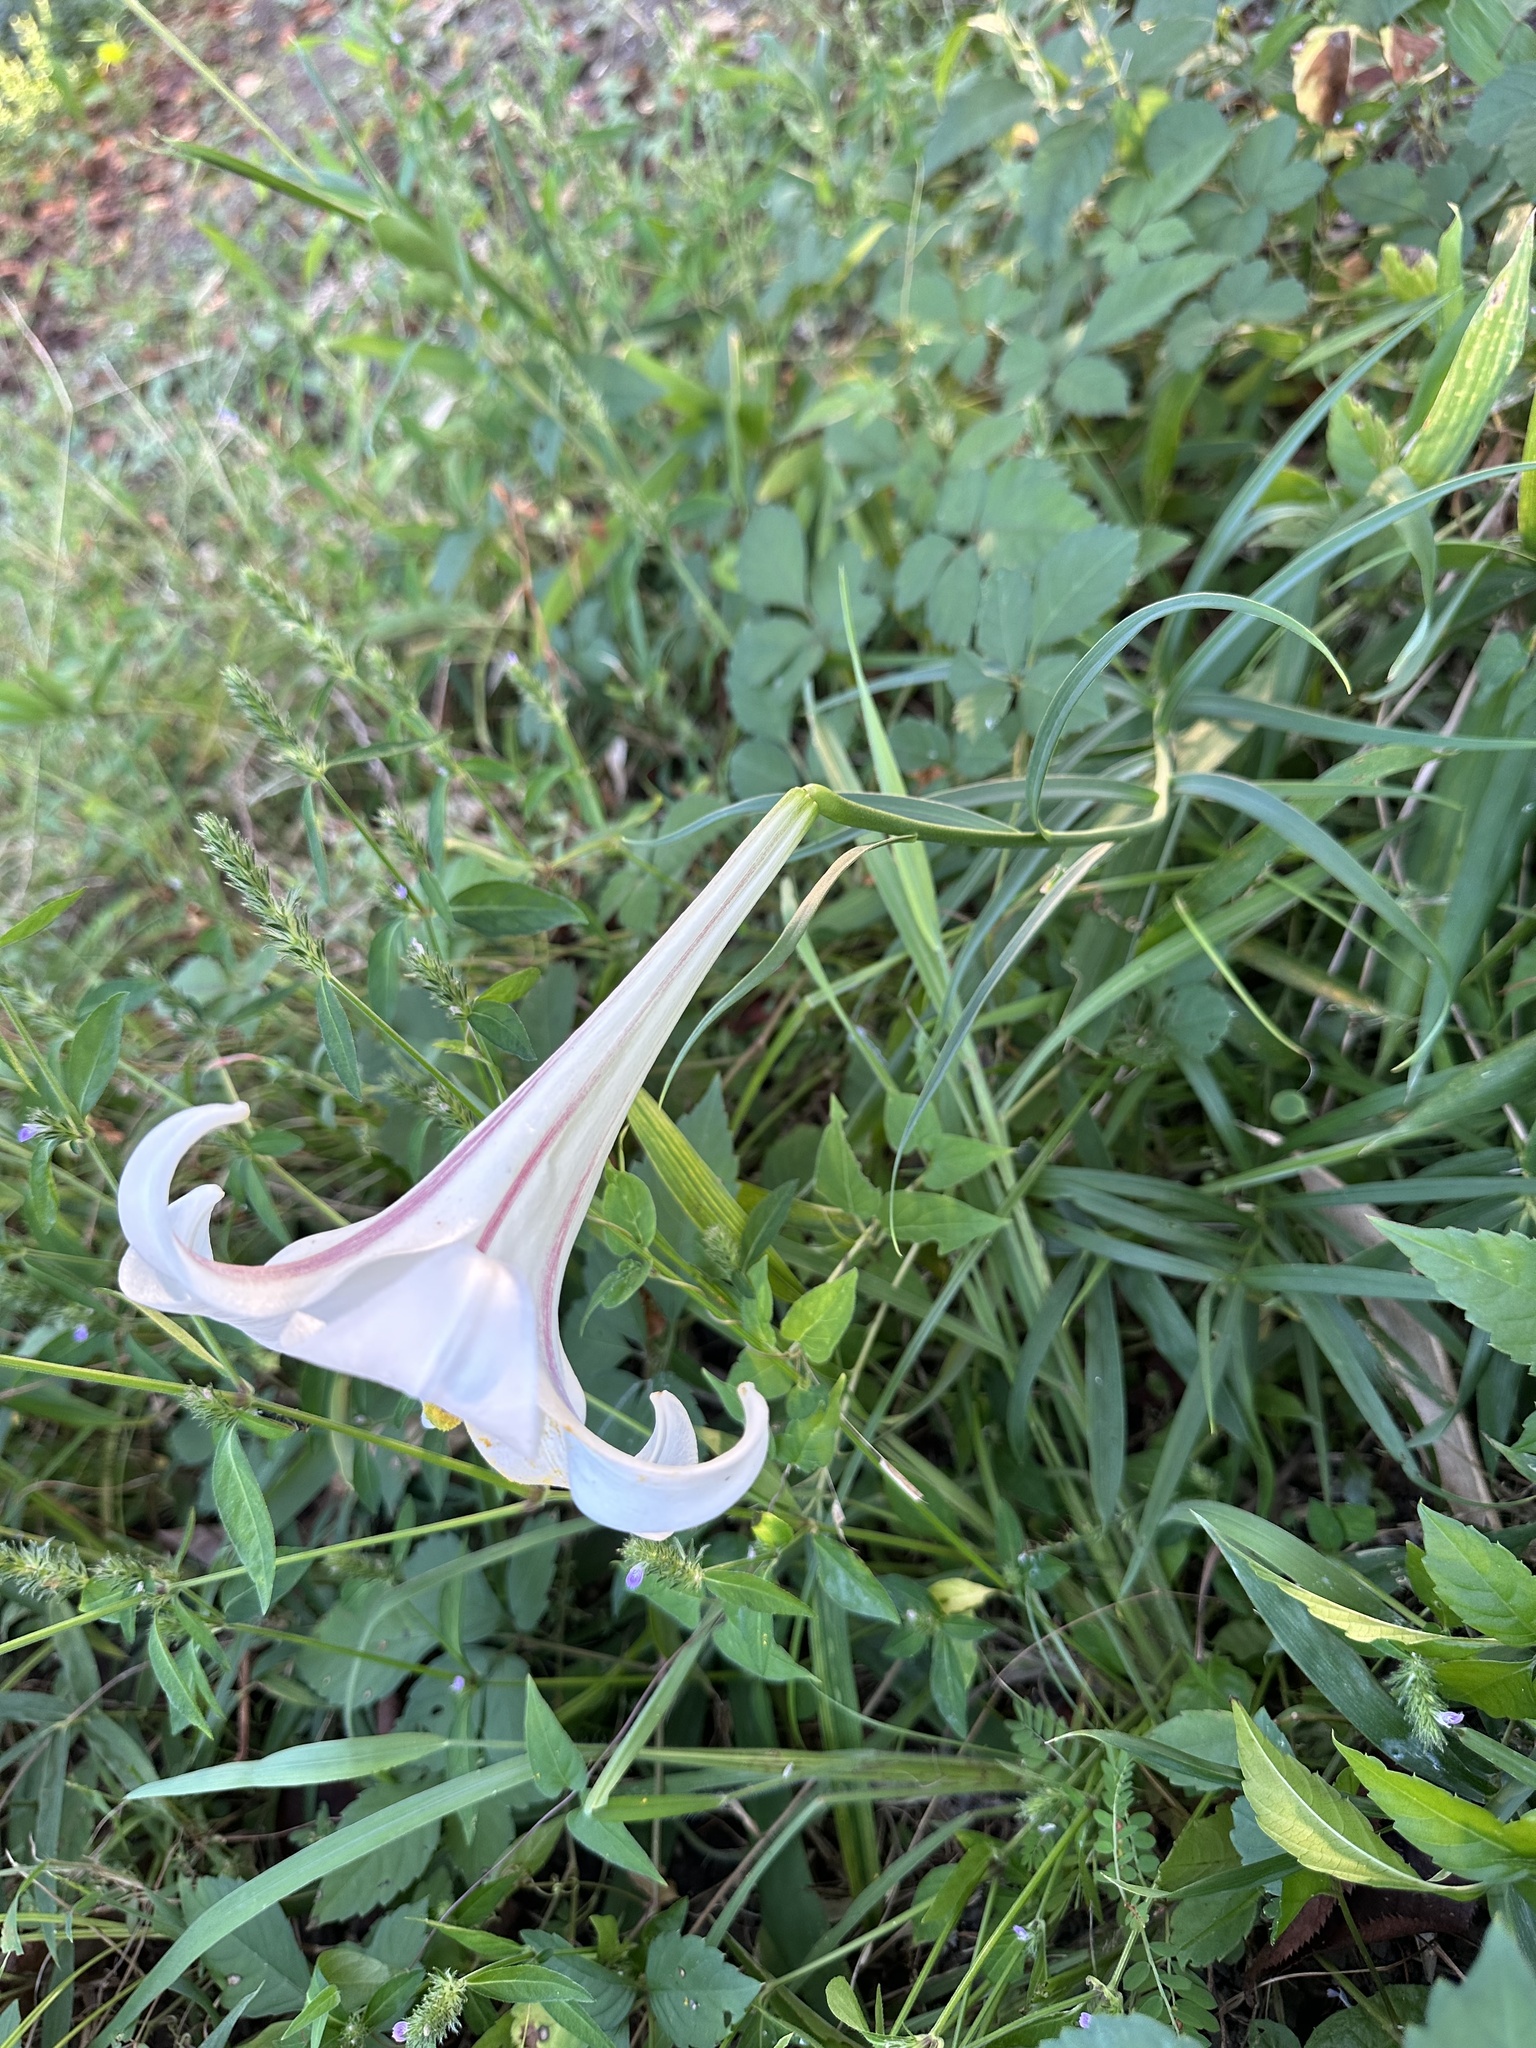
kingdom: Plantae
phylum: Tracheophyta
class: Liliopsida
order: Liliales
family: Liliaceae
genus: Lilium
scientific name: Lilium formosanum
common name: Formosa lily
